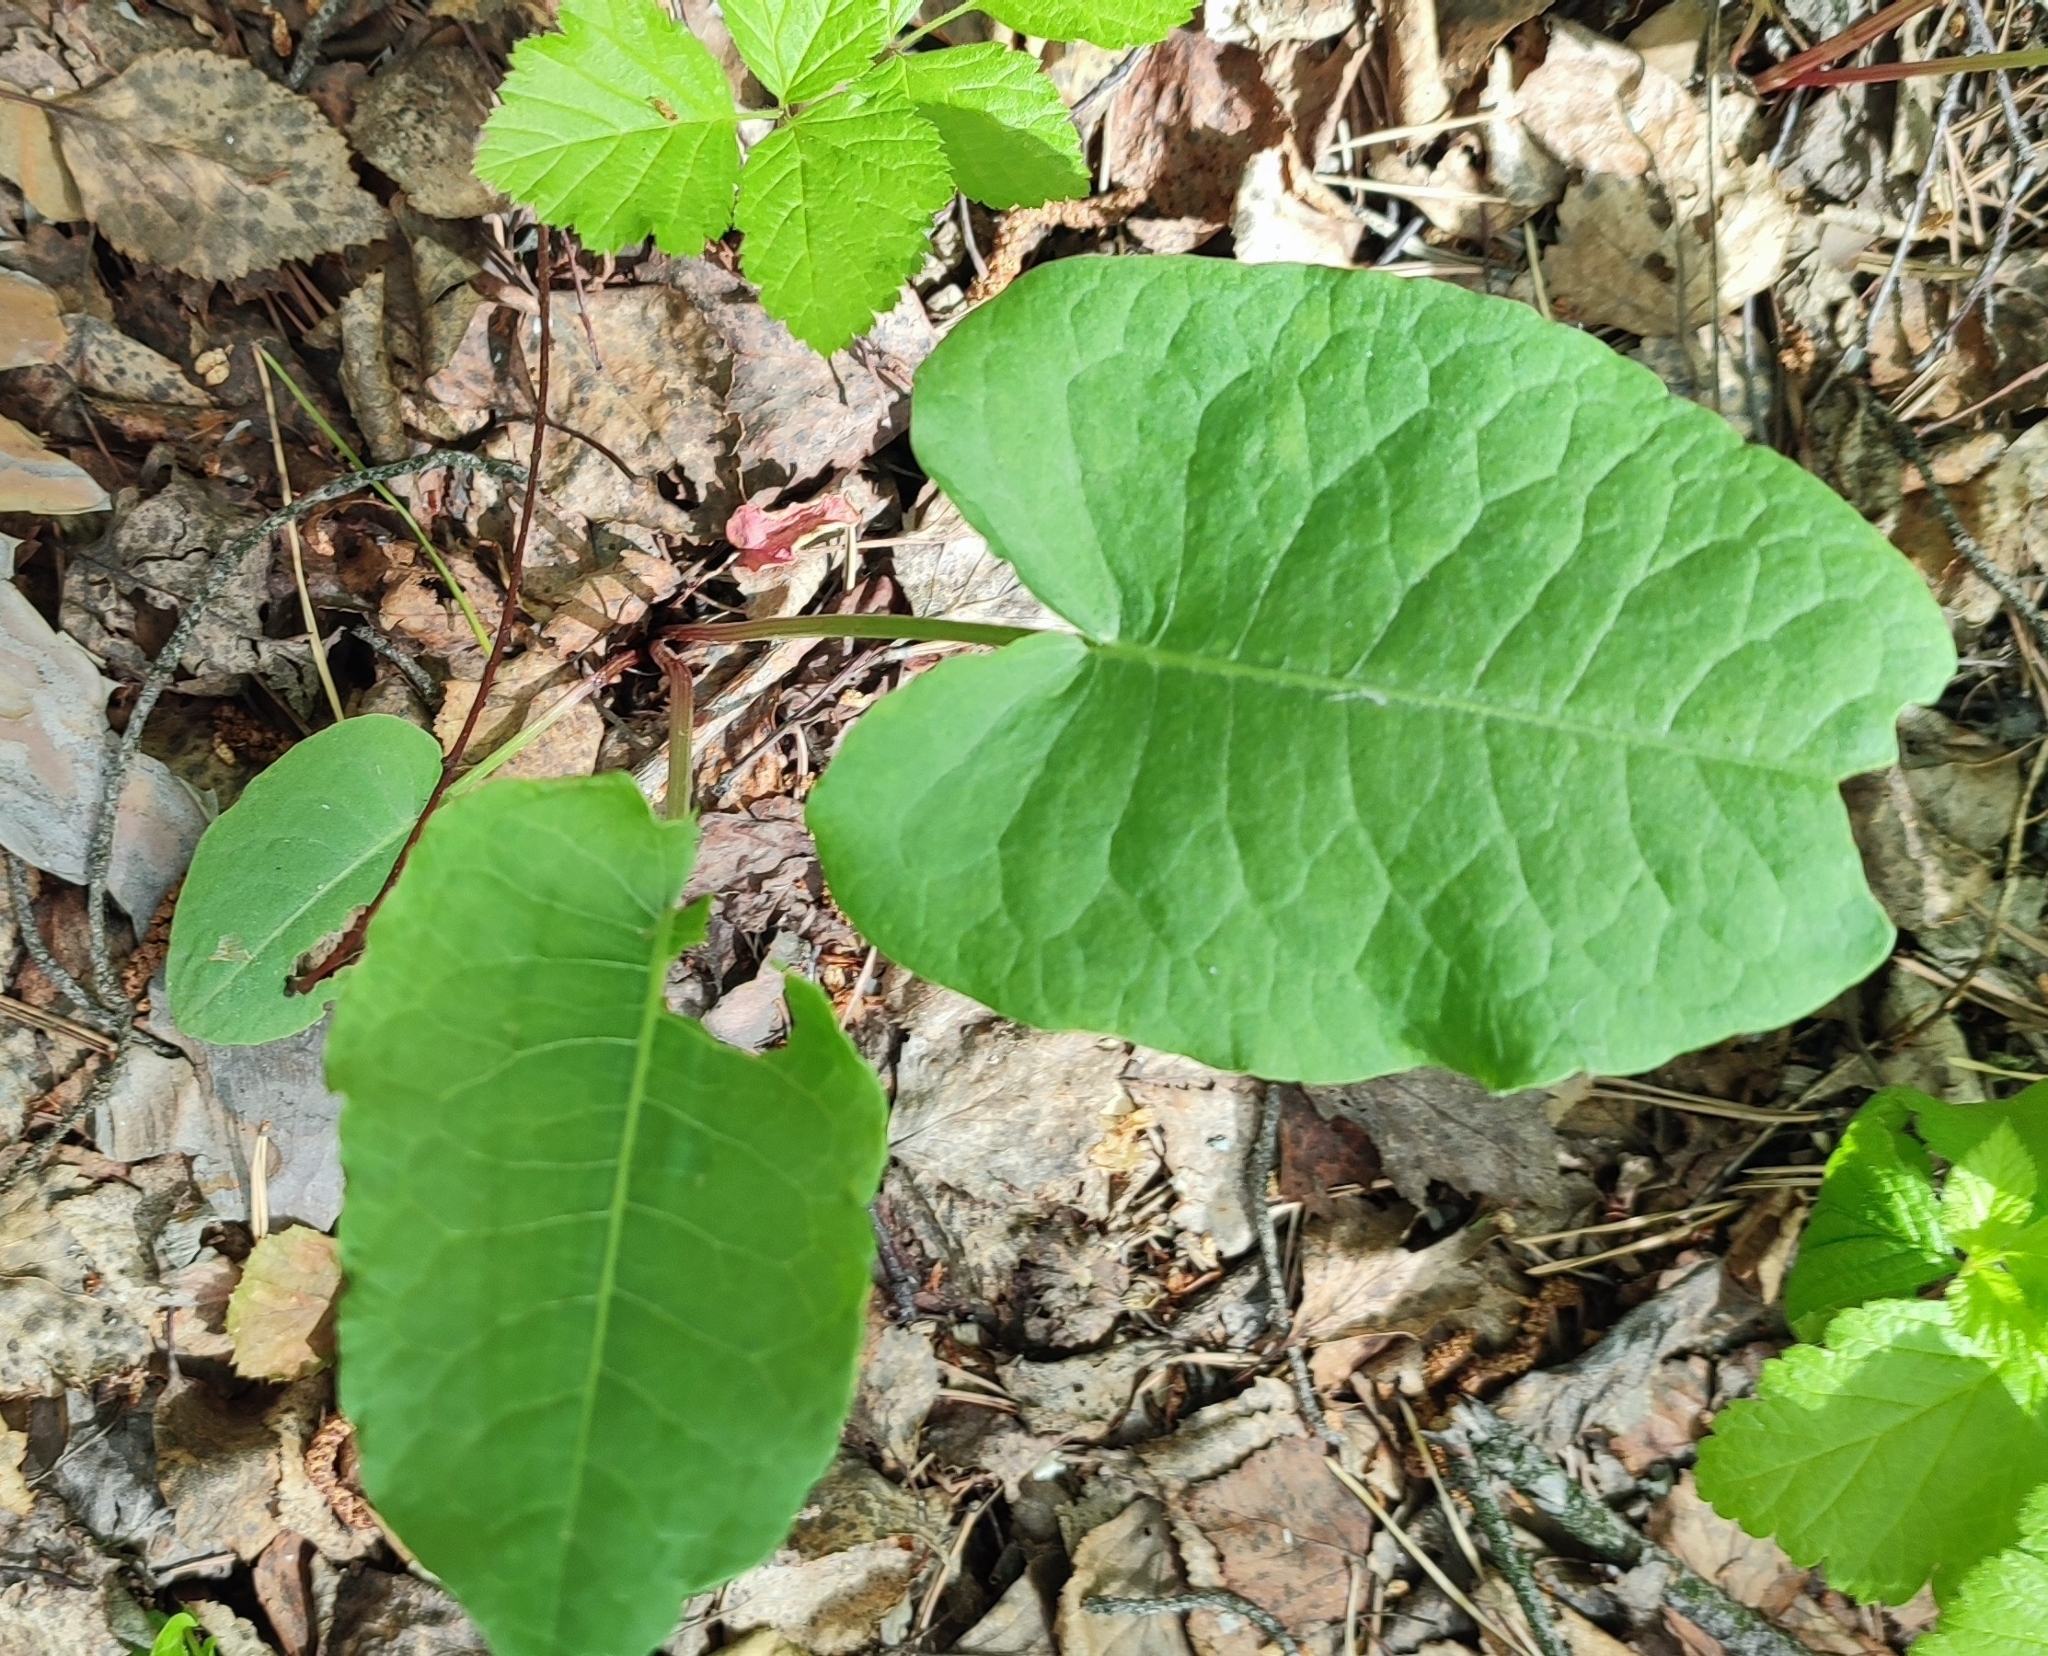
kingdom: Plantae
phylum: Tracheophyta
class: Magnoliopsida
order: Caryophyllales
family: Polygonaceae
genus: Rumex
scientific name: Rumex confertus
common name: Russian dock
